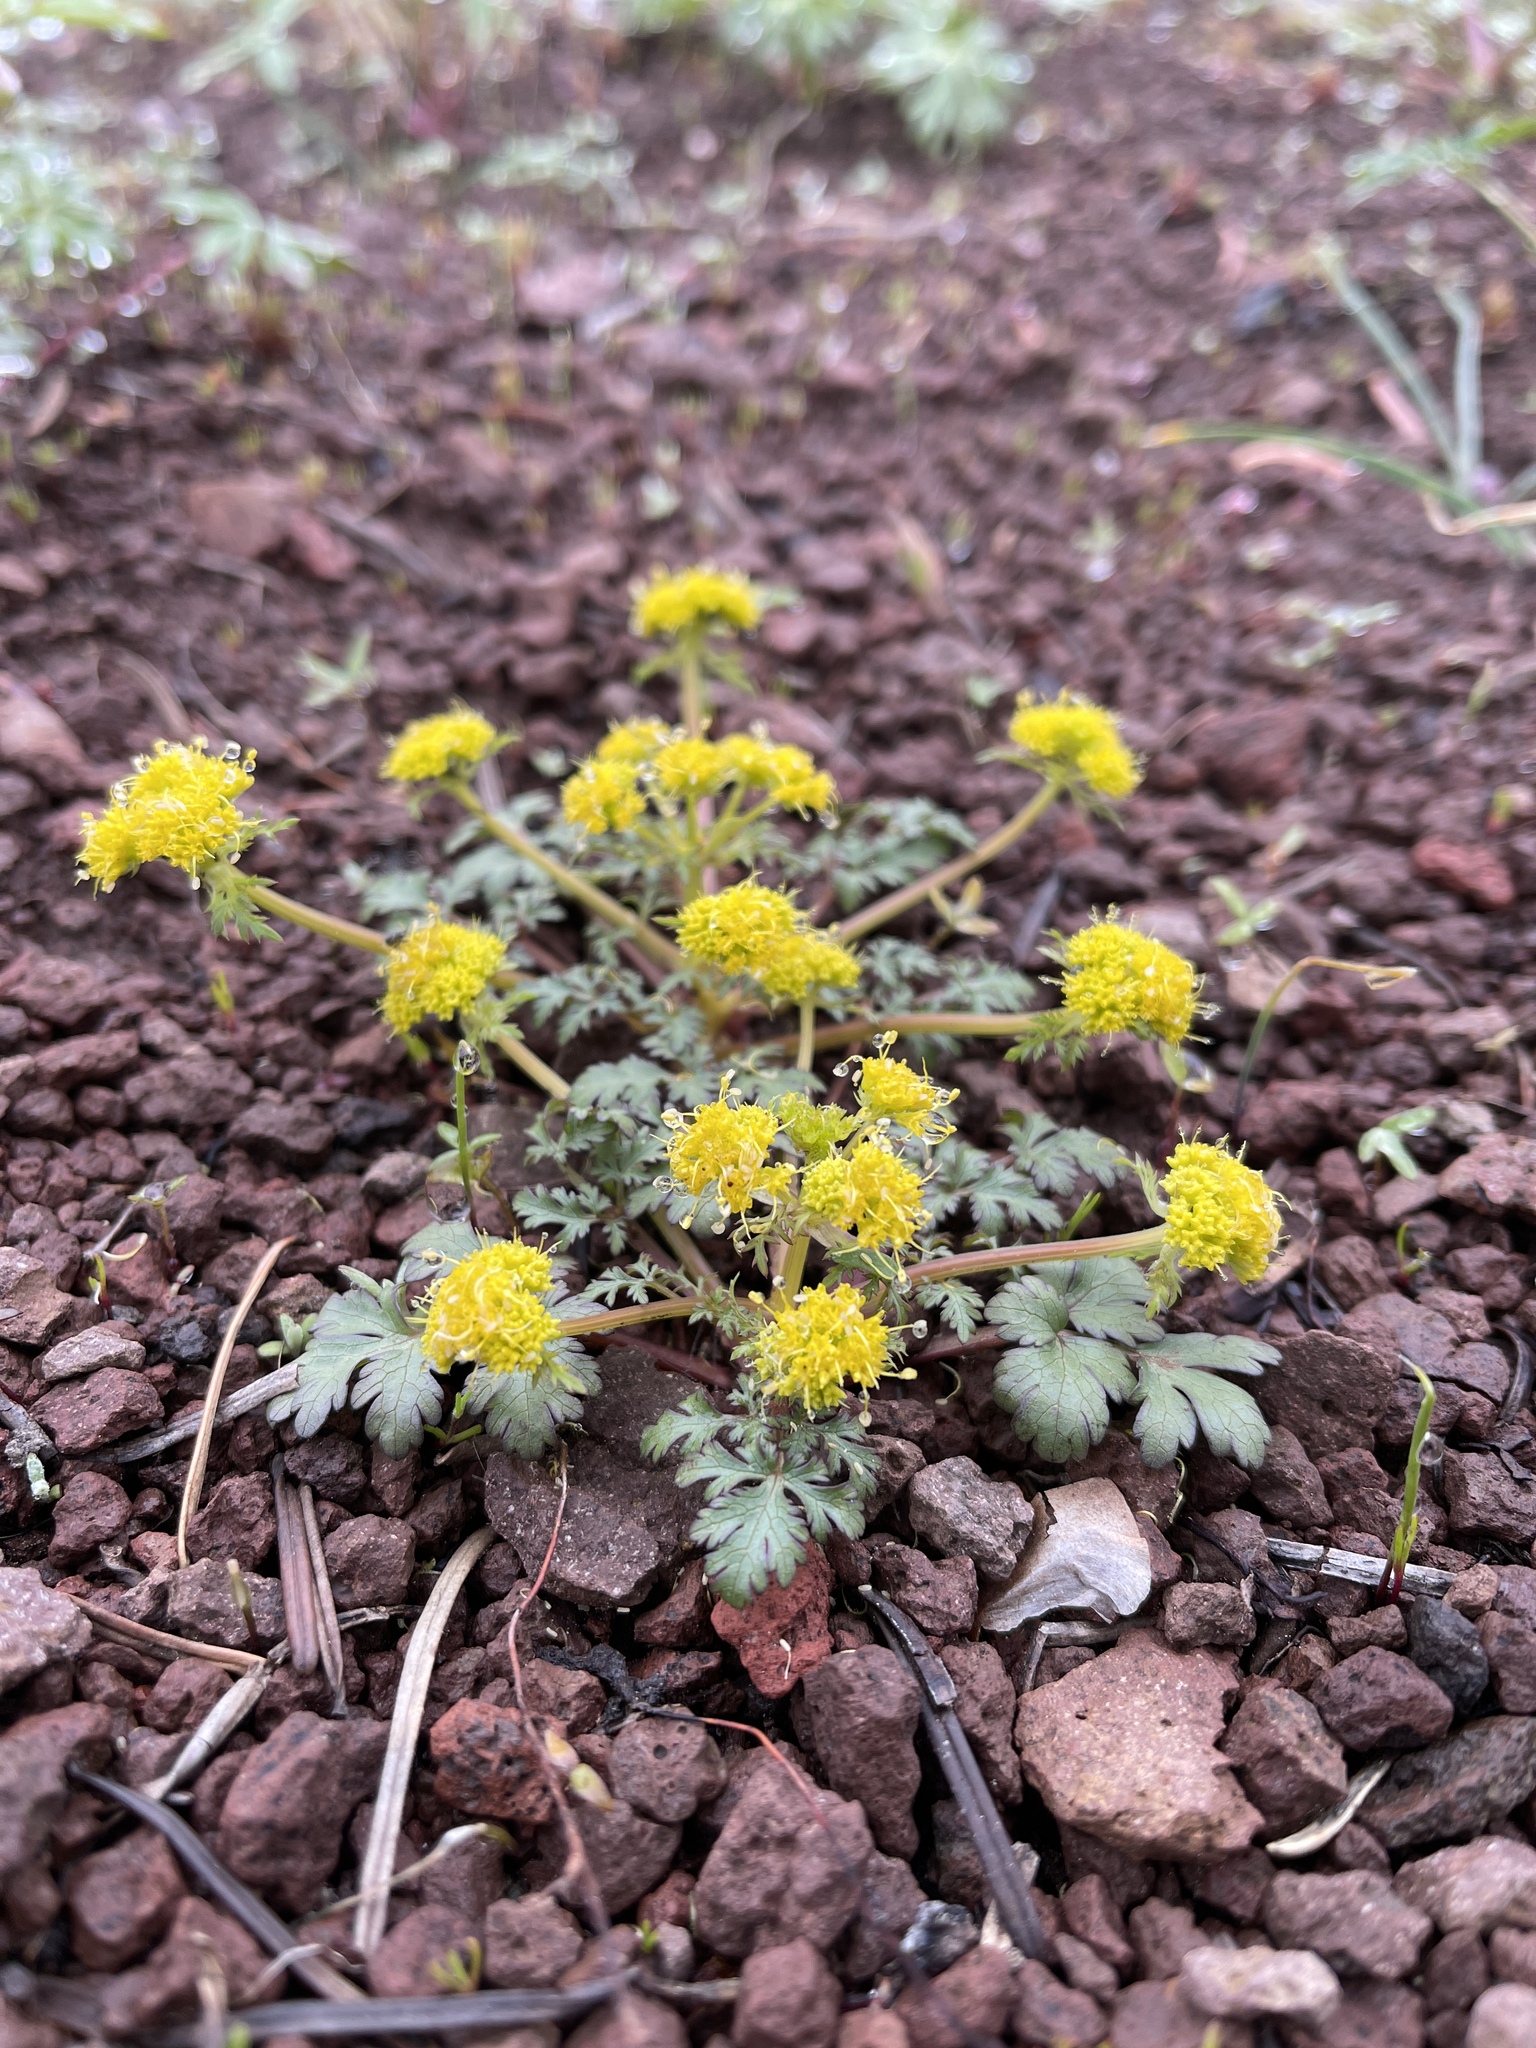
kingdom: Plantae
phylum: Tracheophyta
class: Magnoliopsida
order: Apiales
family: Apiaceae
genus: Sanicula
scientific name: Sanicula graveolens
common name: Sierra sanicle
